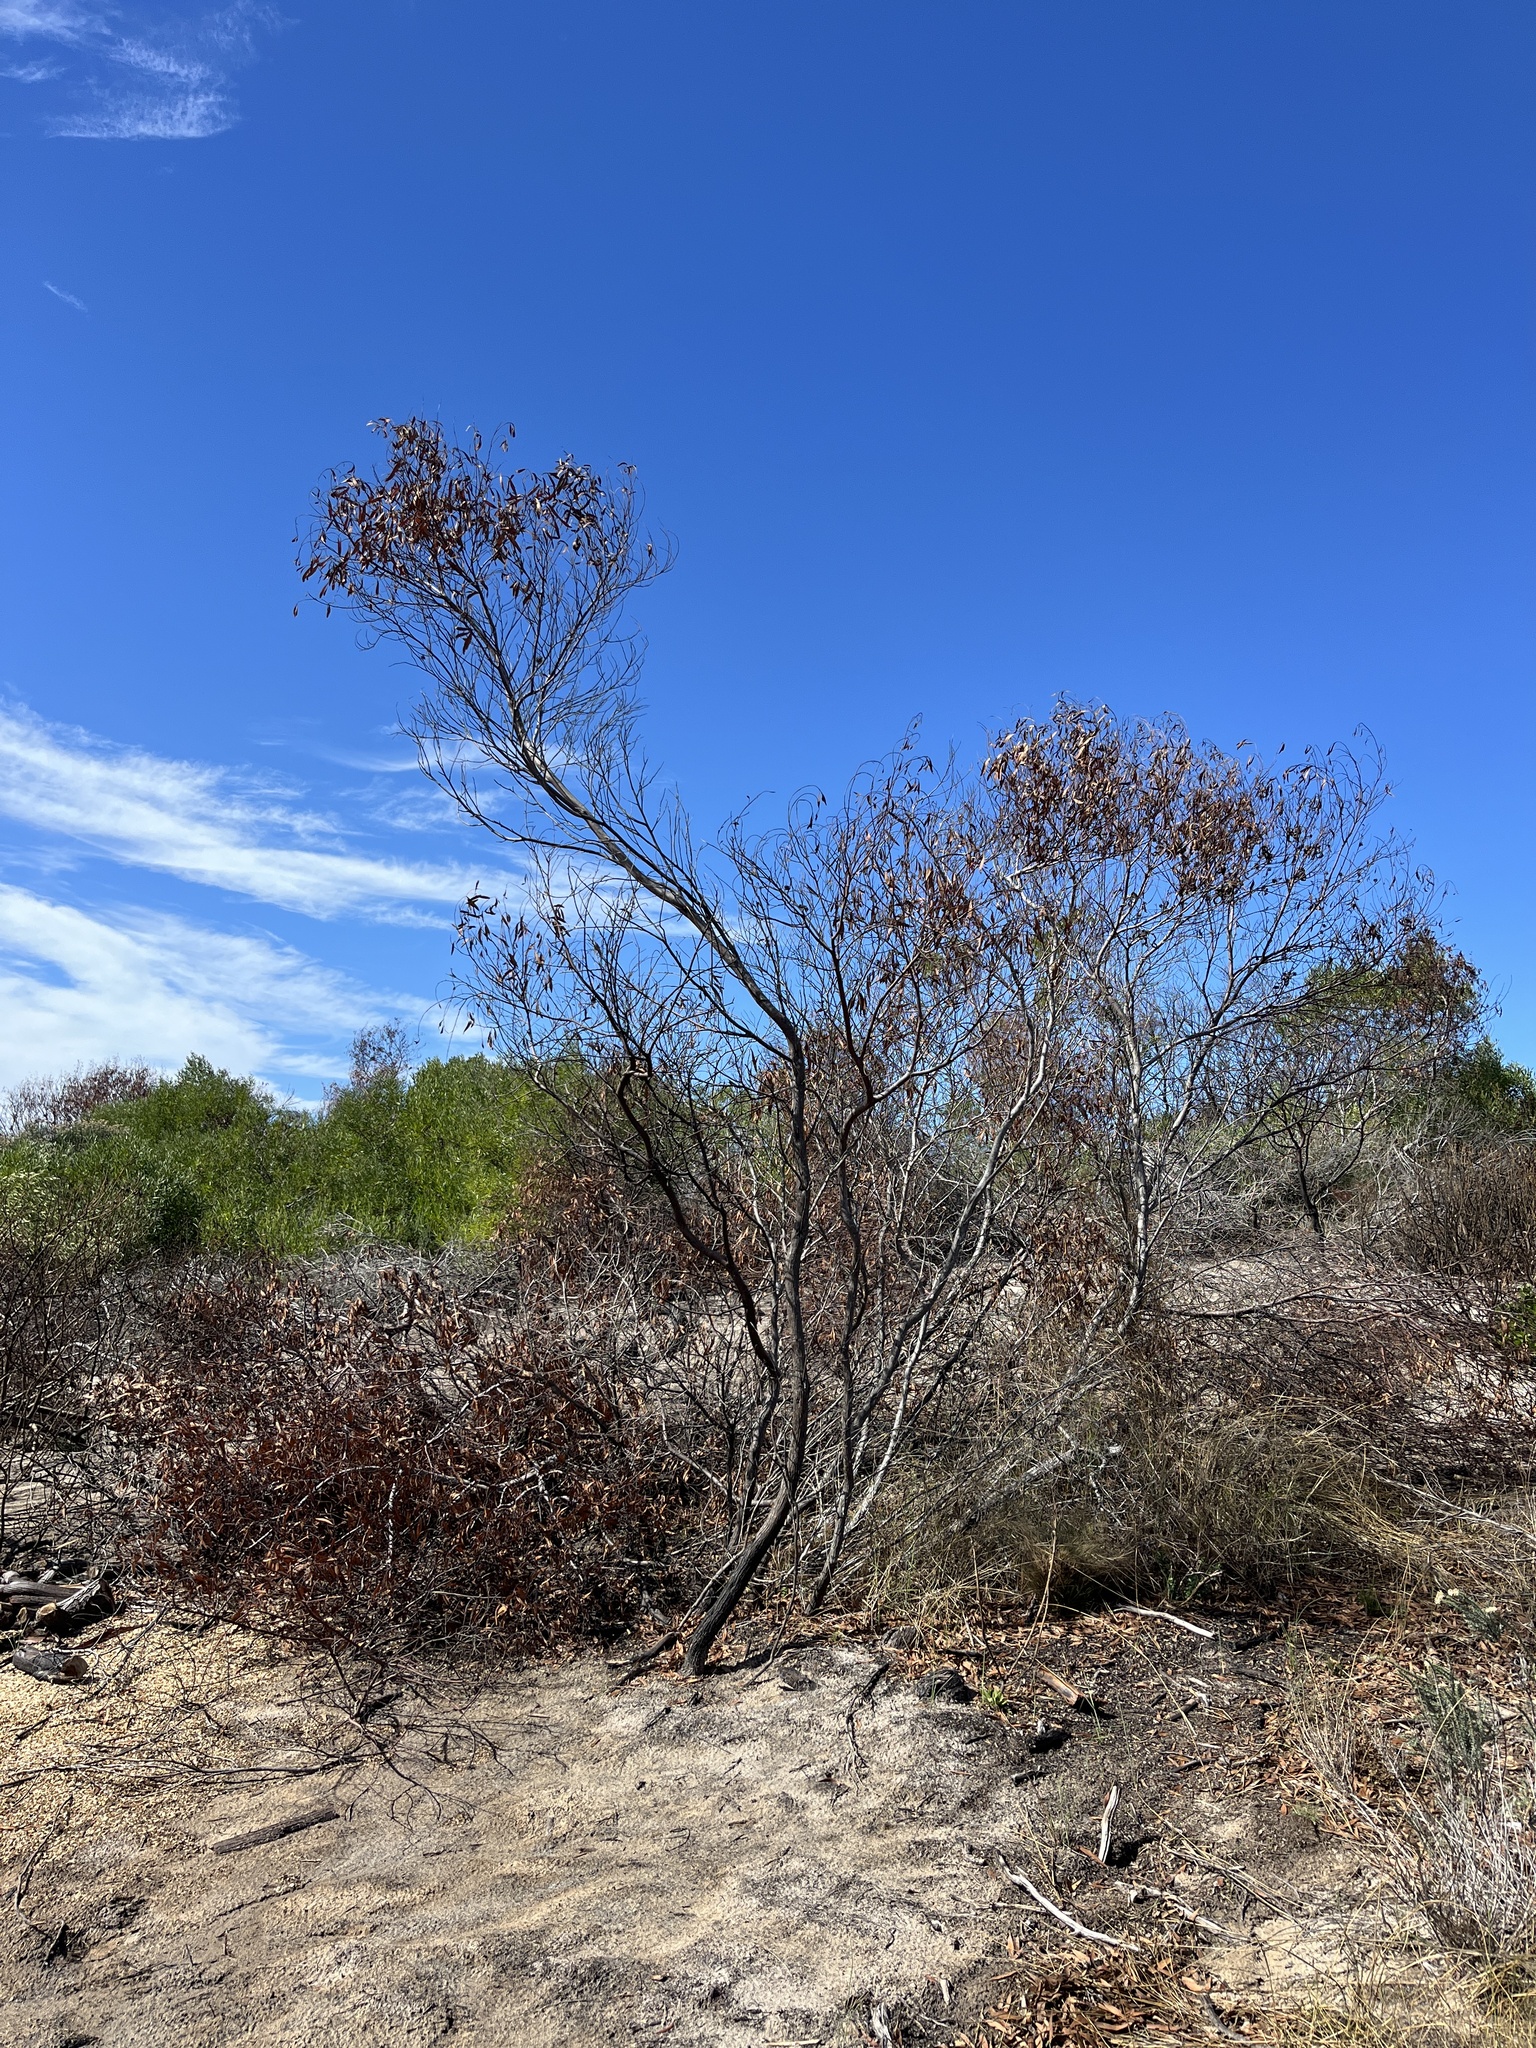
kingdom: Plantae
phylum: Tracheophyta
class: Magnoliopsida
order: Fabales
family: Fabaceae
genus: Acacia
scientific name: Acacia cyclops
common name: Coastal wattle
